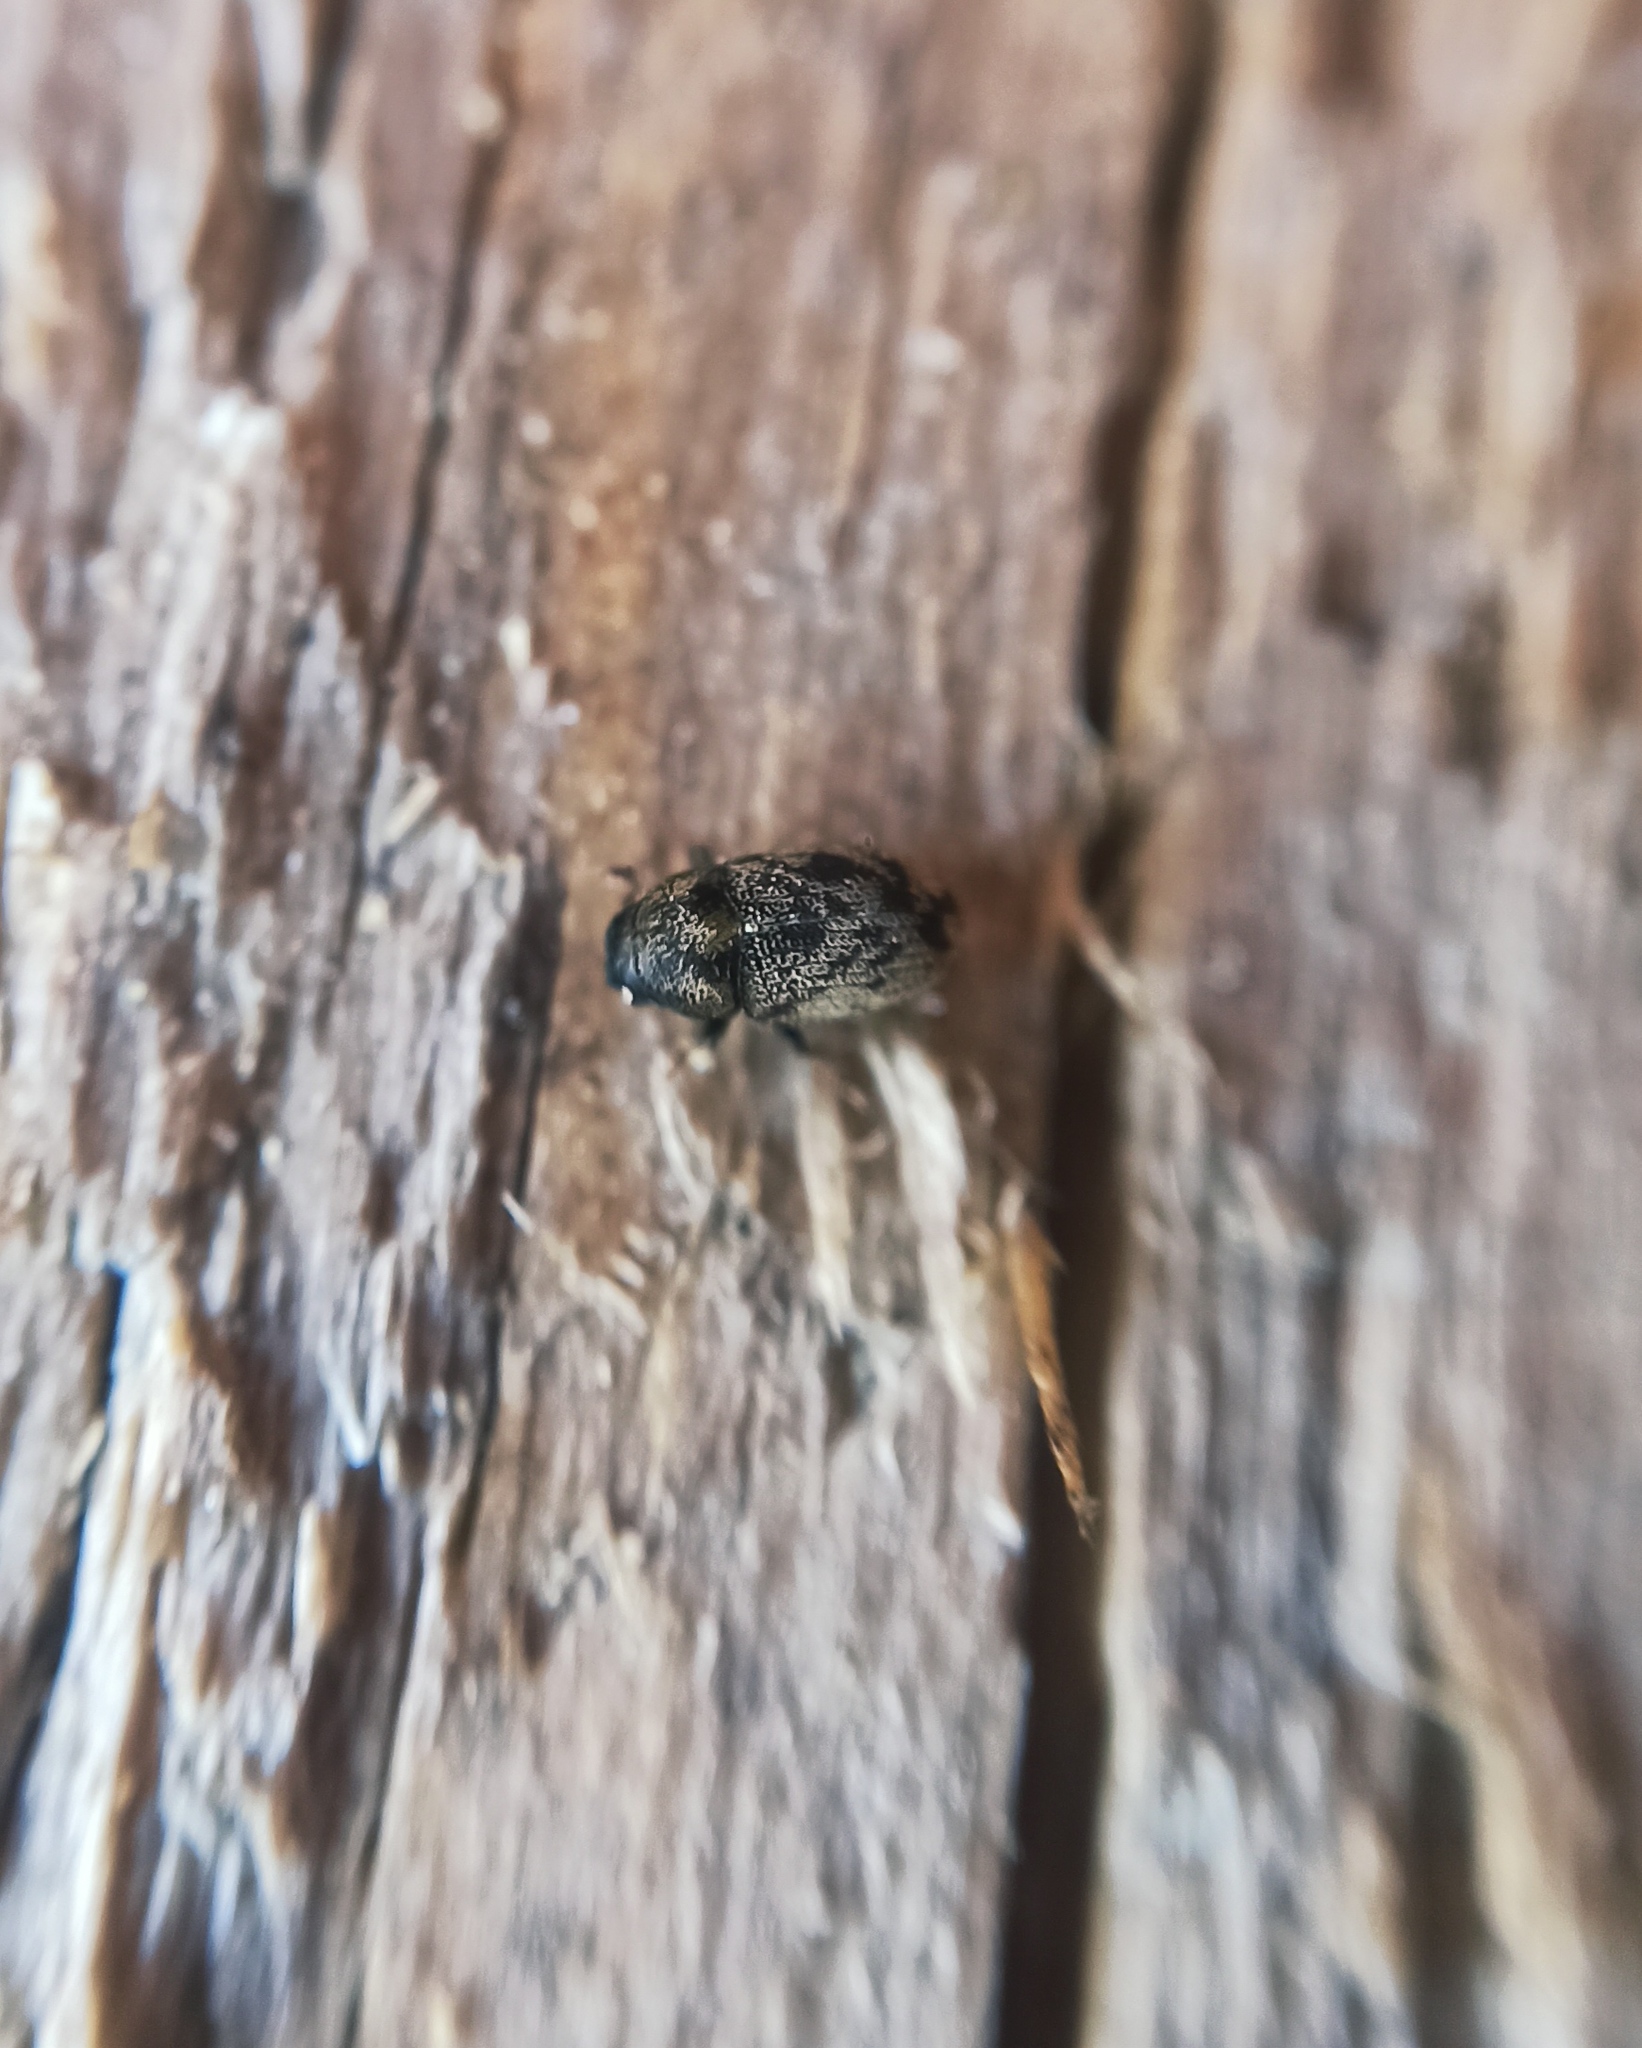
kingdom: Animalia
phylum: Arthropoda
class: Insecta
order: Coleoptera
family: Curculionidae
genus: Hylesinus
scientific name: Hylesinus varius
